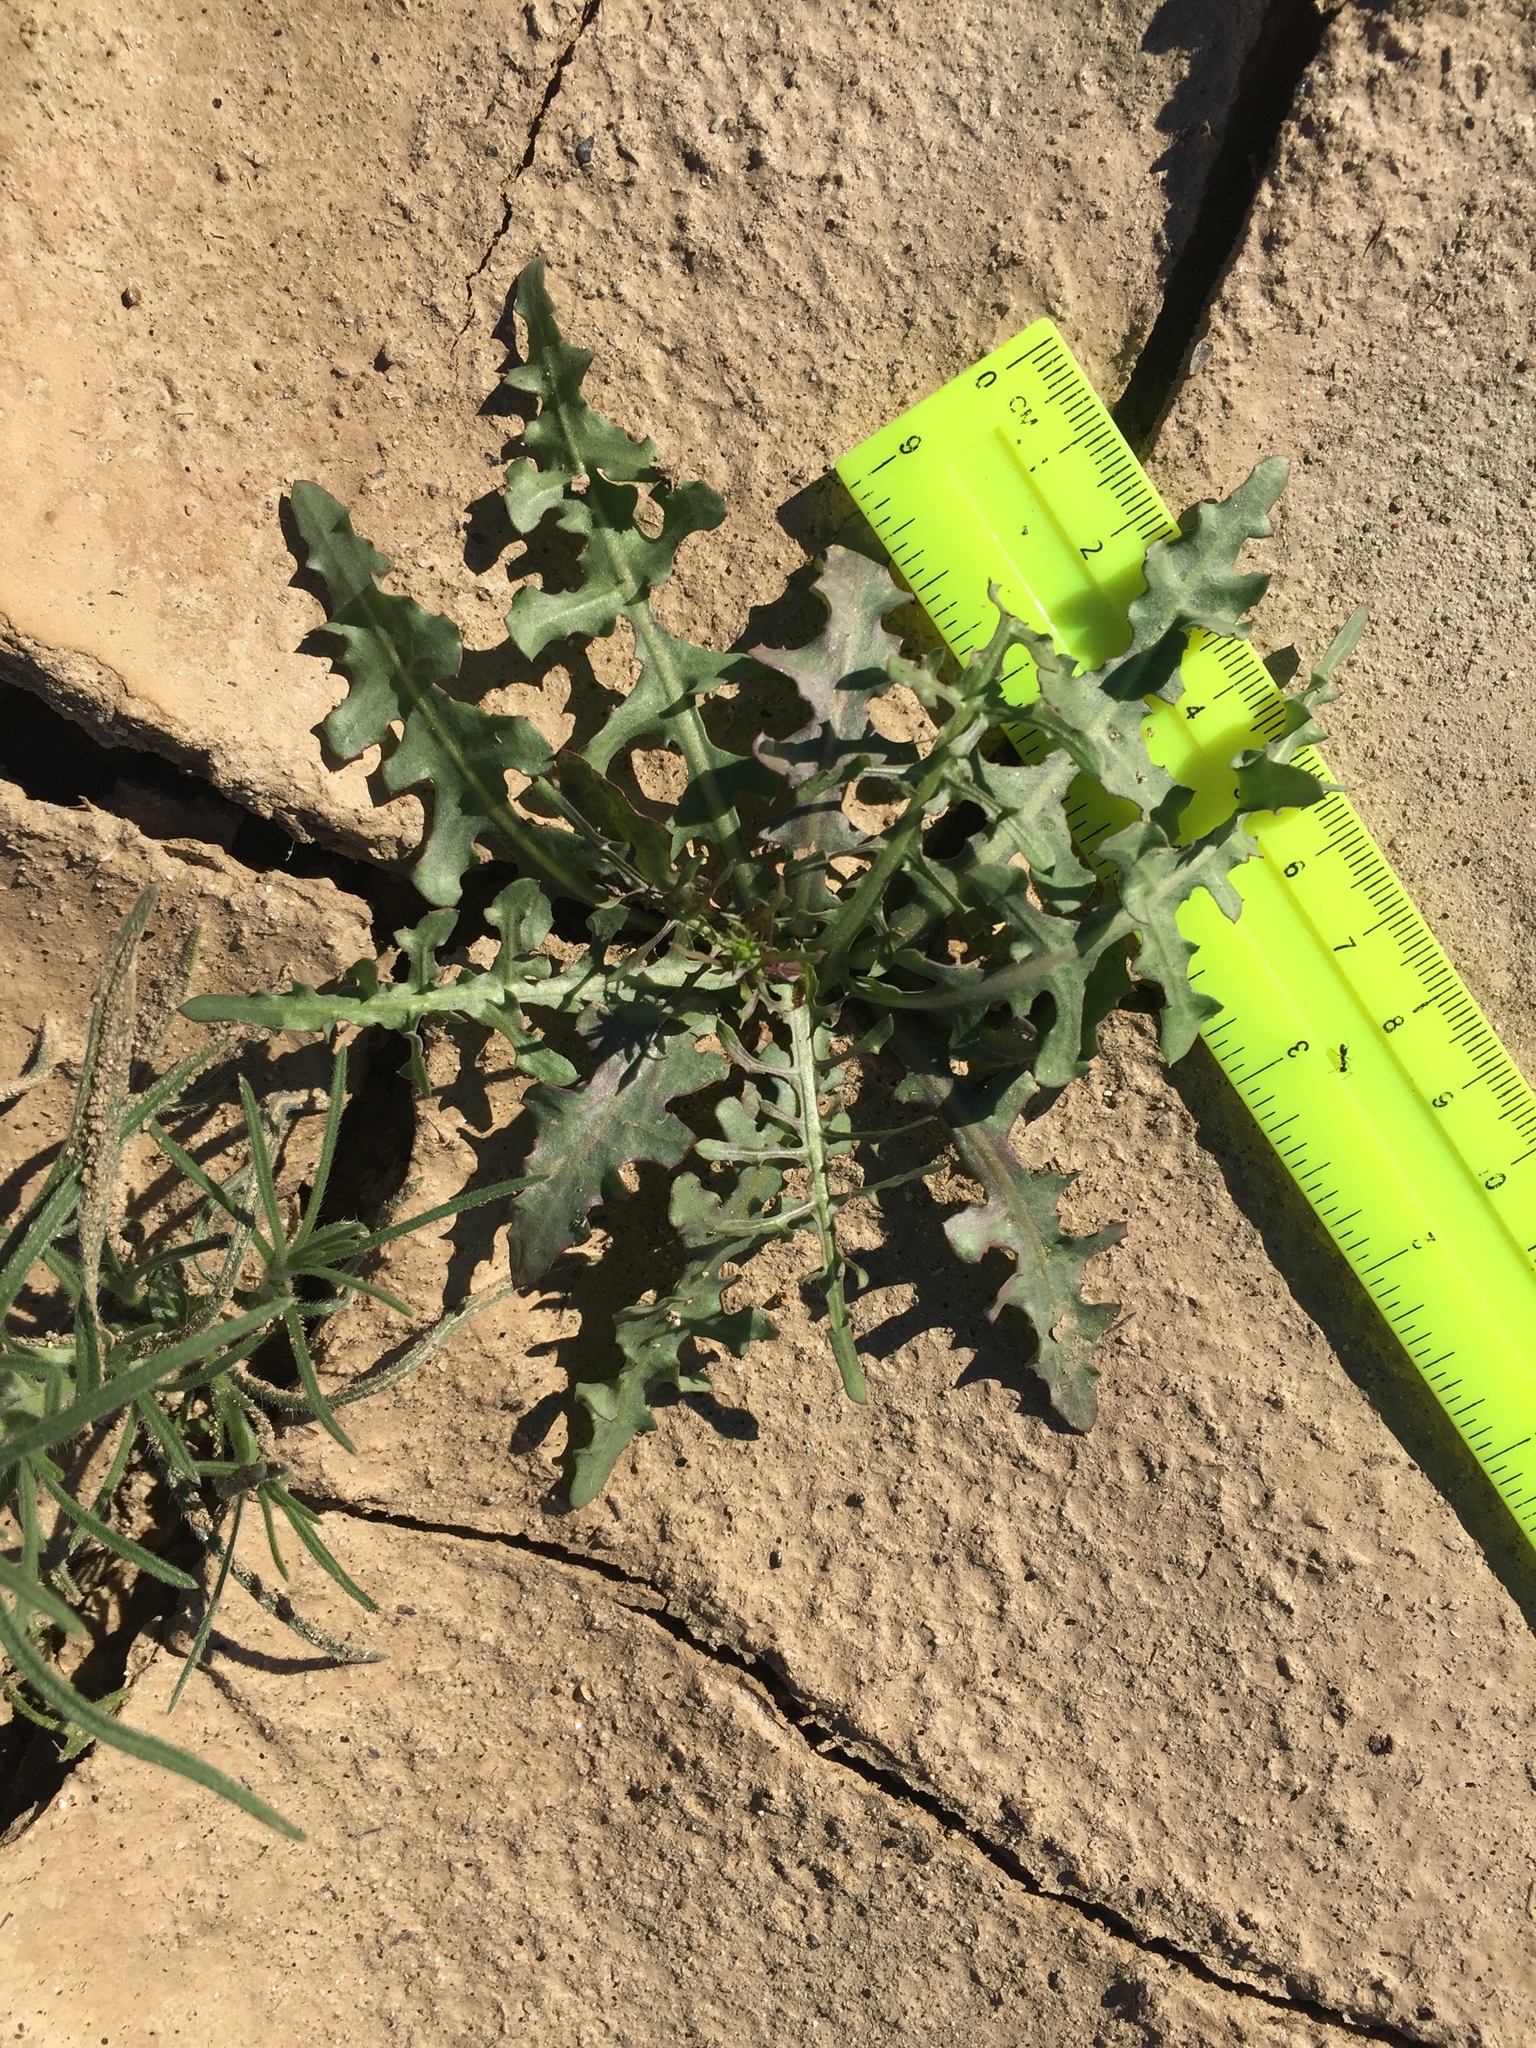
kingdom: Plantae
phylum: Tracheophyta
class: Magnoliopsida
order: Asterales
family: Asteraceae
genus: Rafinesquia
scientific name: Rafinesquia neomexicana
